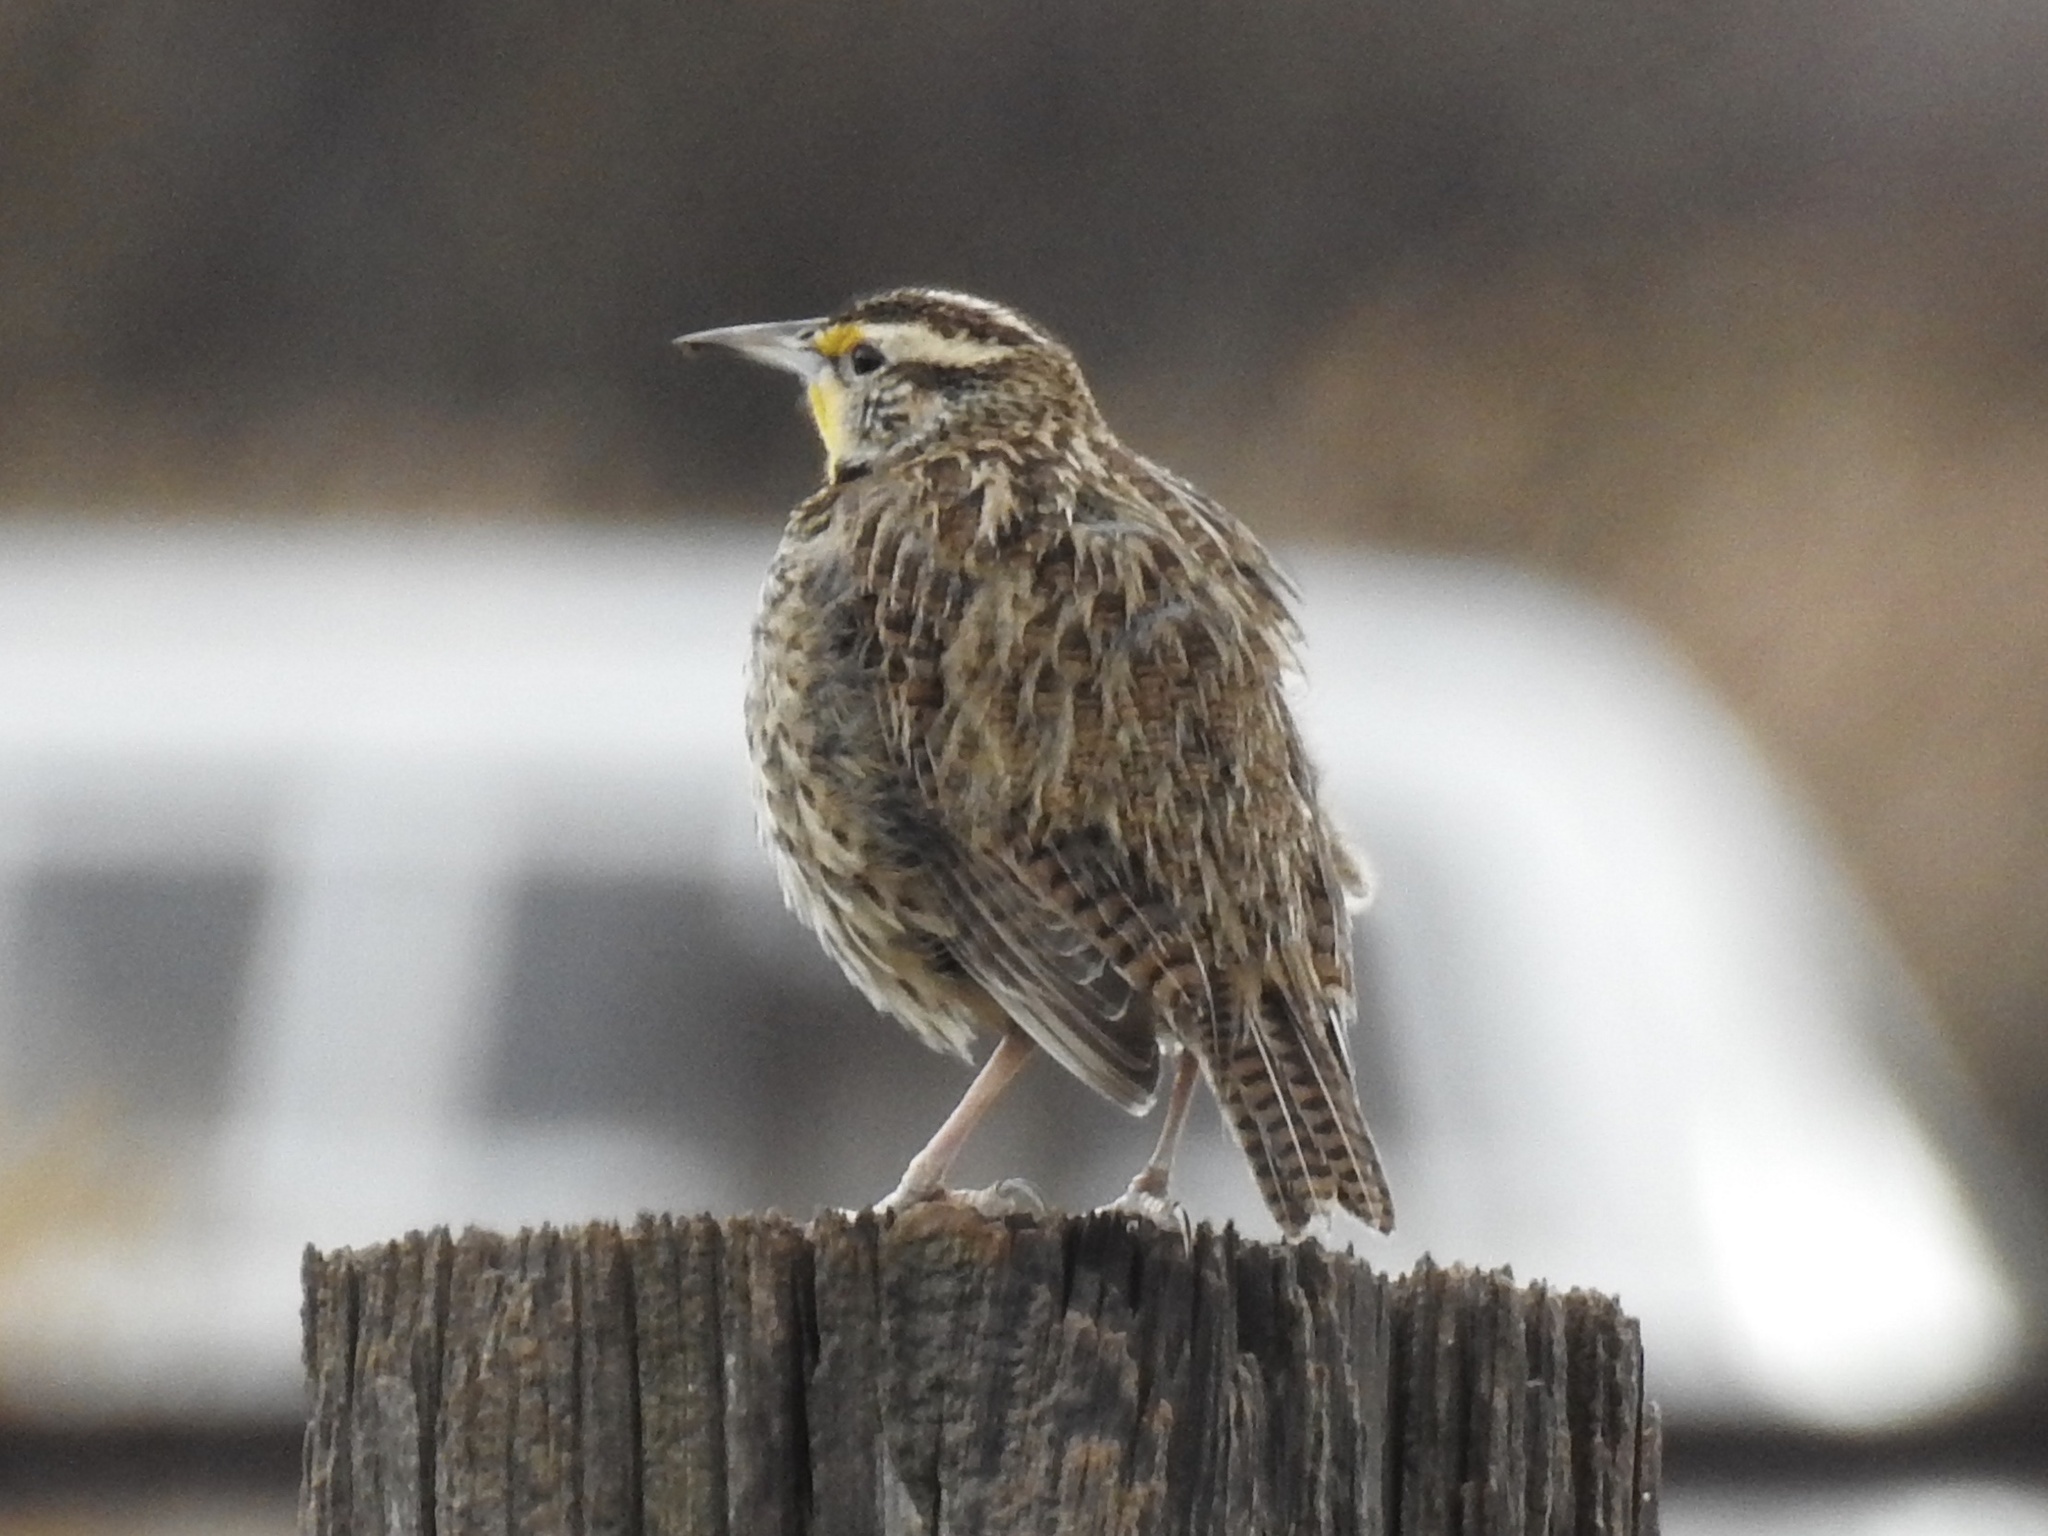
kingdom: Animalia
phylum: Chordata
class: Aves
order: Passeriformes
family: Icteridae
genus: Sturnella
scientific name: Sturnella neglecta
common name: Western meadowlark
